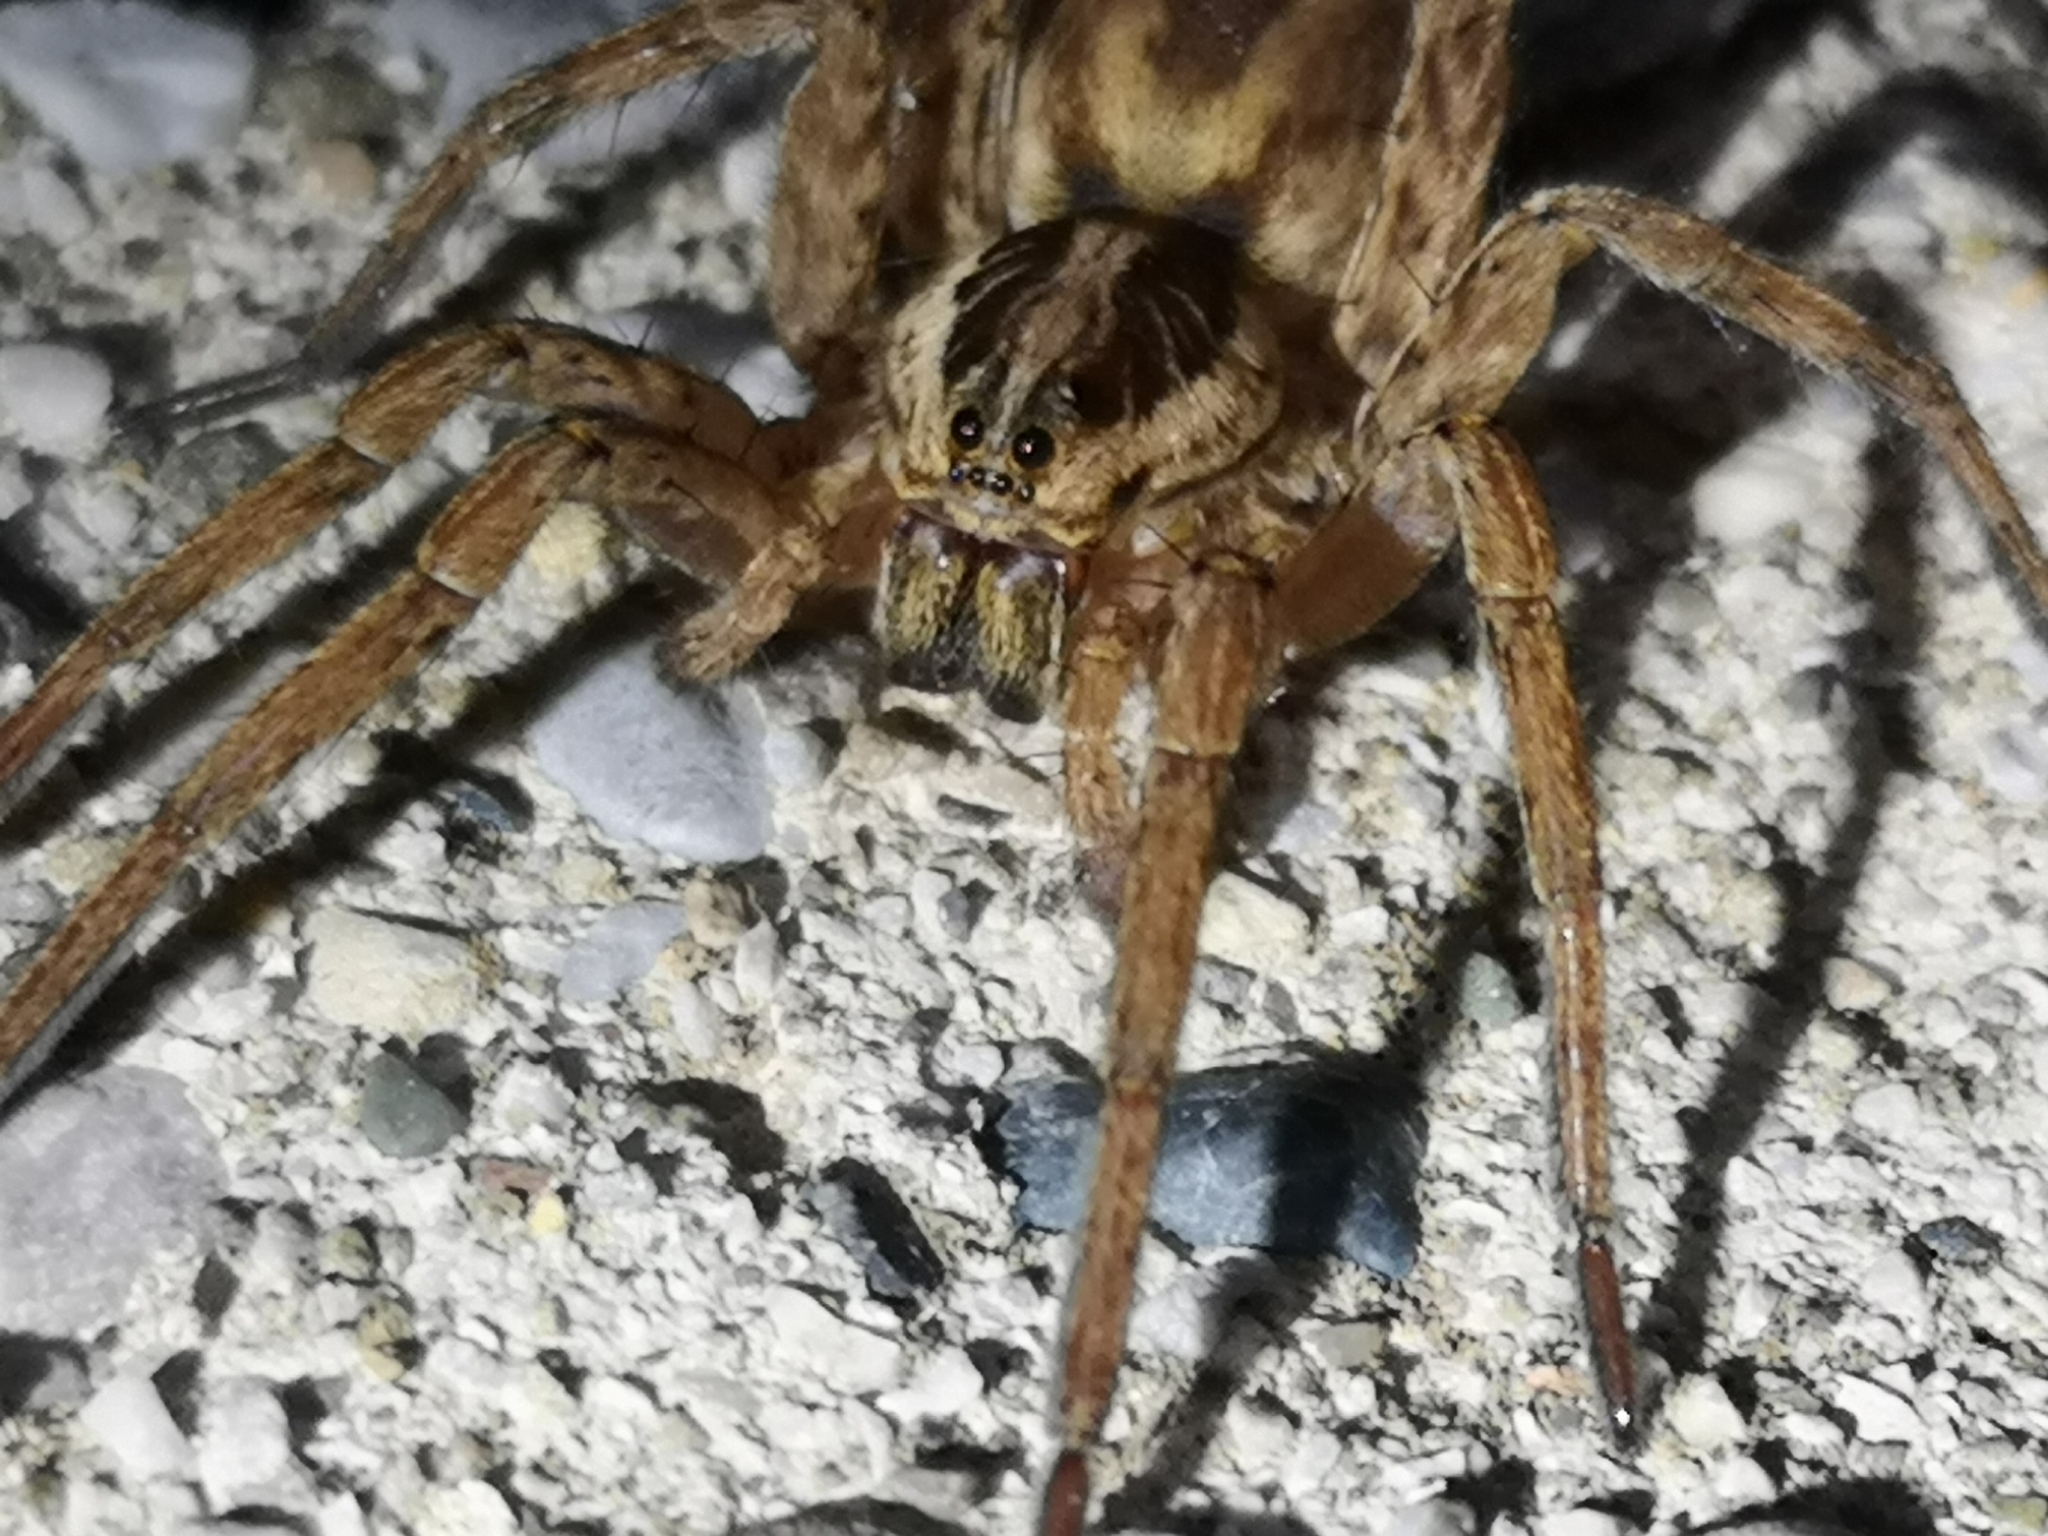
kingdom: Animalia
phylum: Arthropoda
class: Arachnida
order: Araneae
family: Lycosidae
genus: Hogna
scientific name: Hogna radiata
